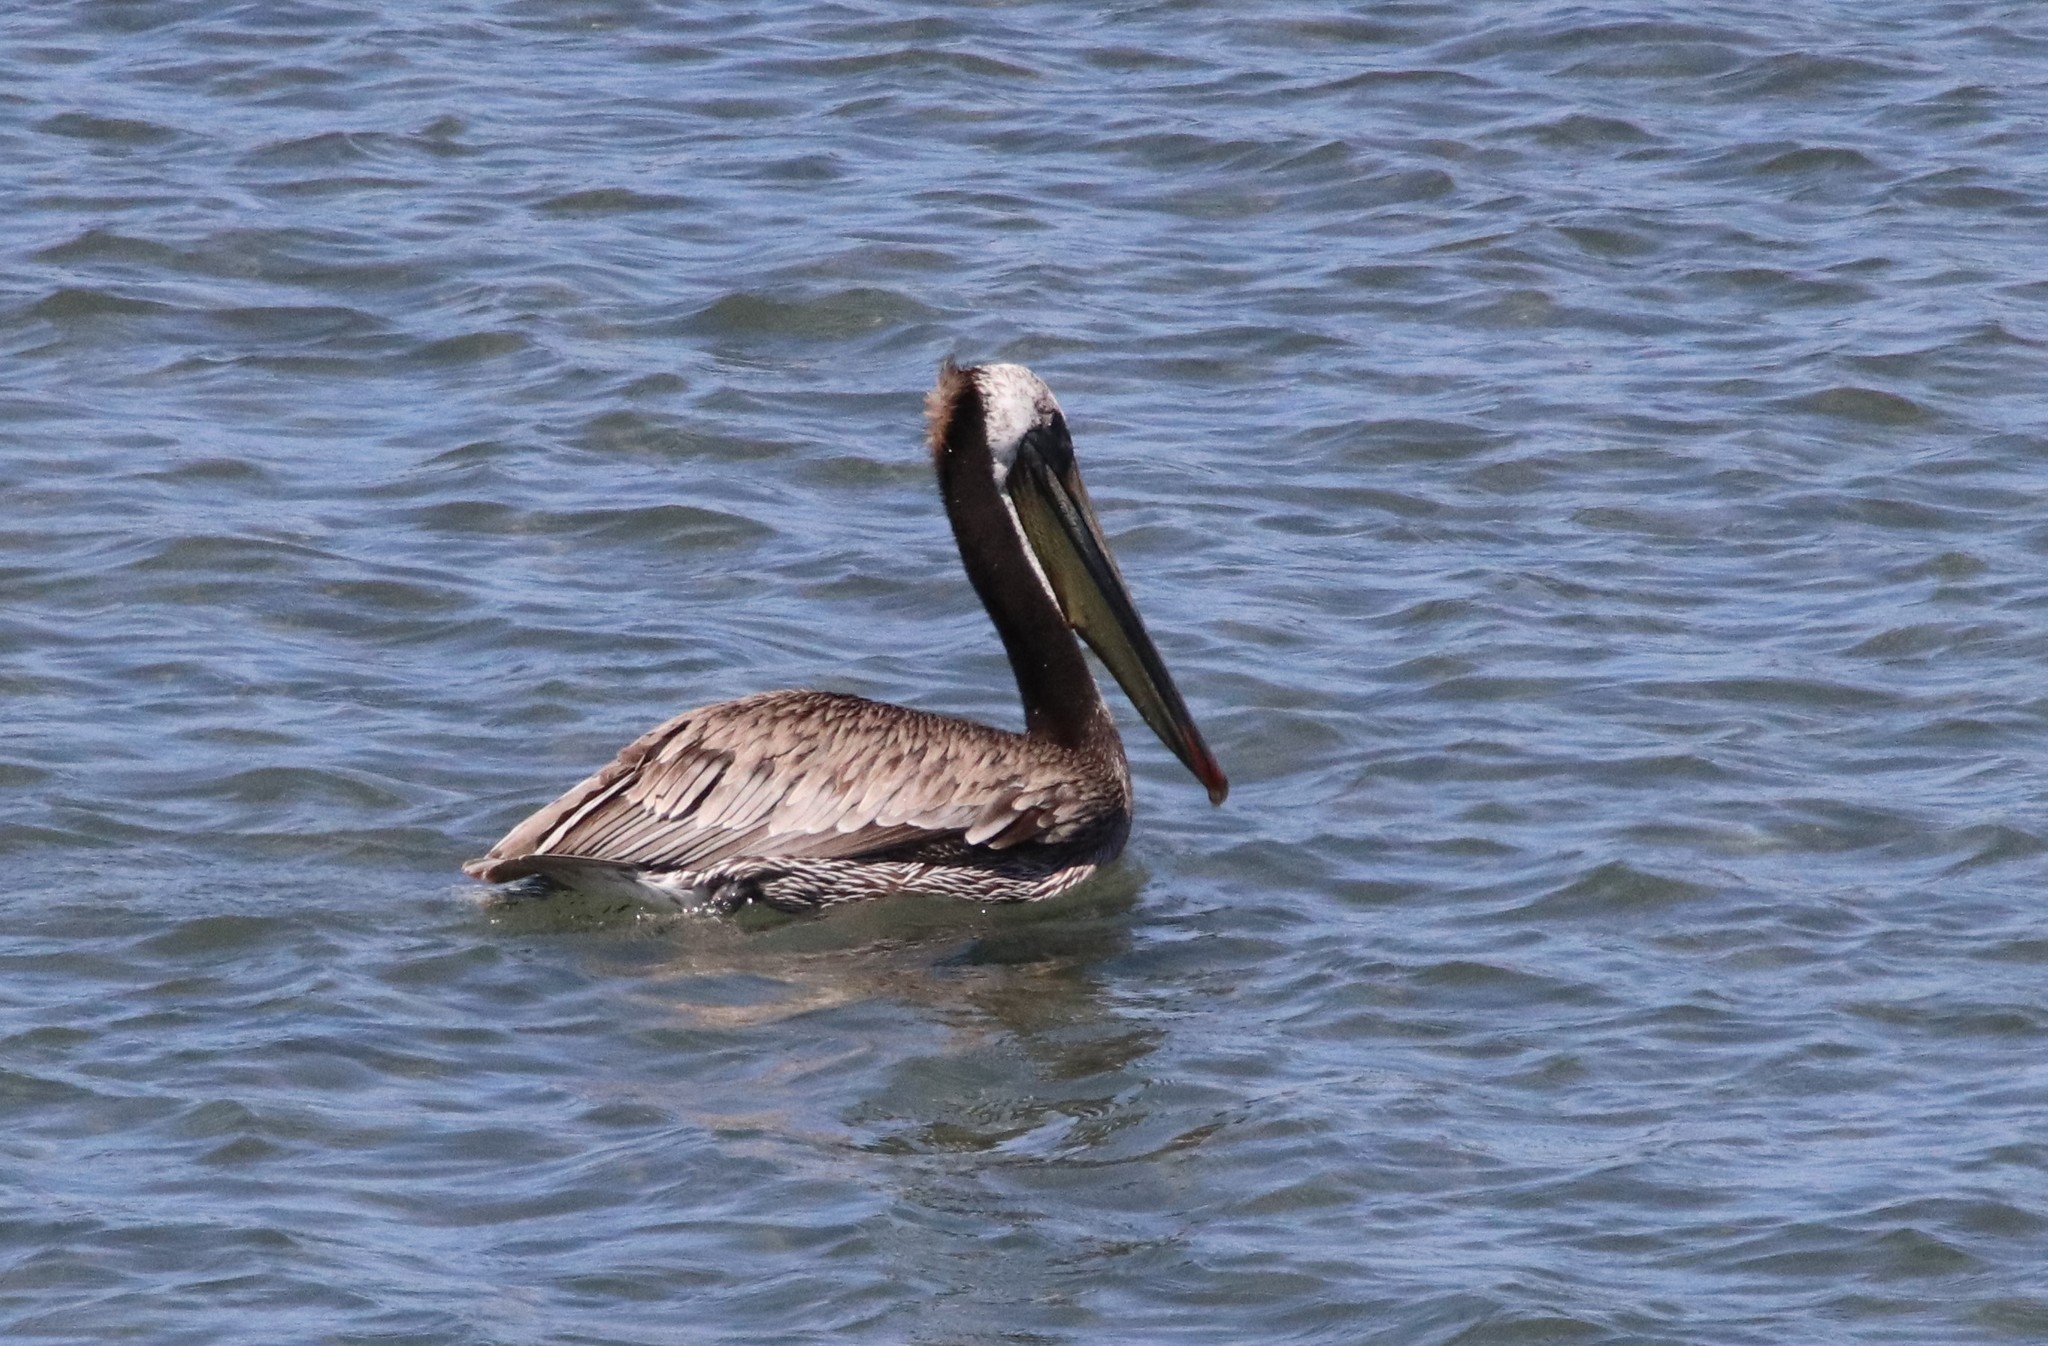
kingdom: Animalia
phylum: Chordata
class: Aves
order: Pelecaniformes
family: Pelecanidae
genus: Pelecanus
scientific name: Pelecanus occidentalis
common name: Brown pelican
